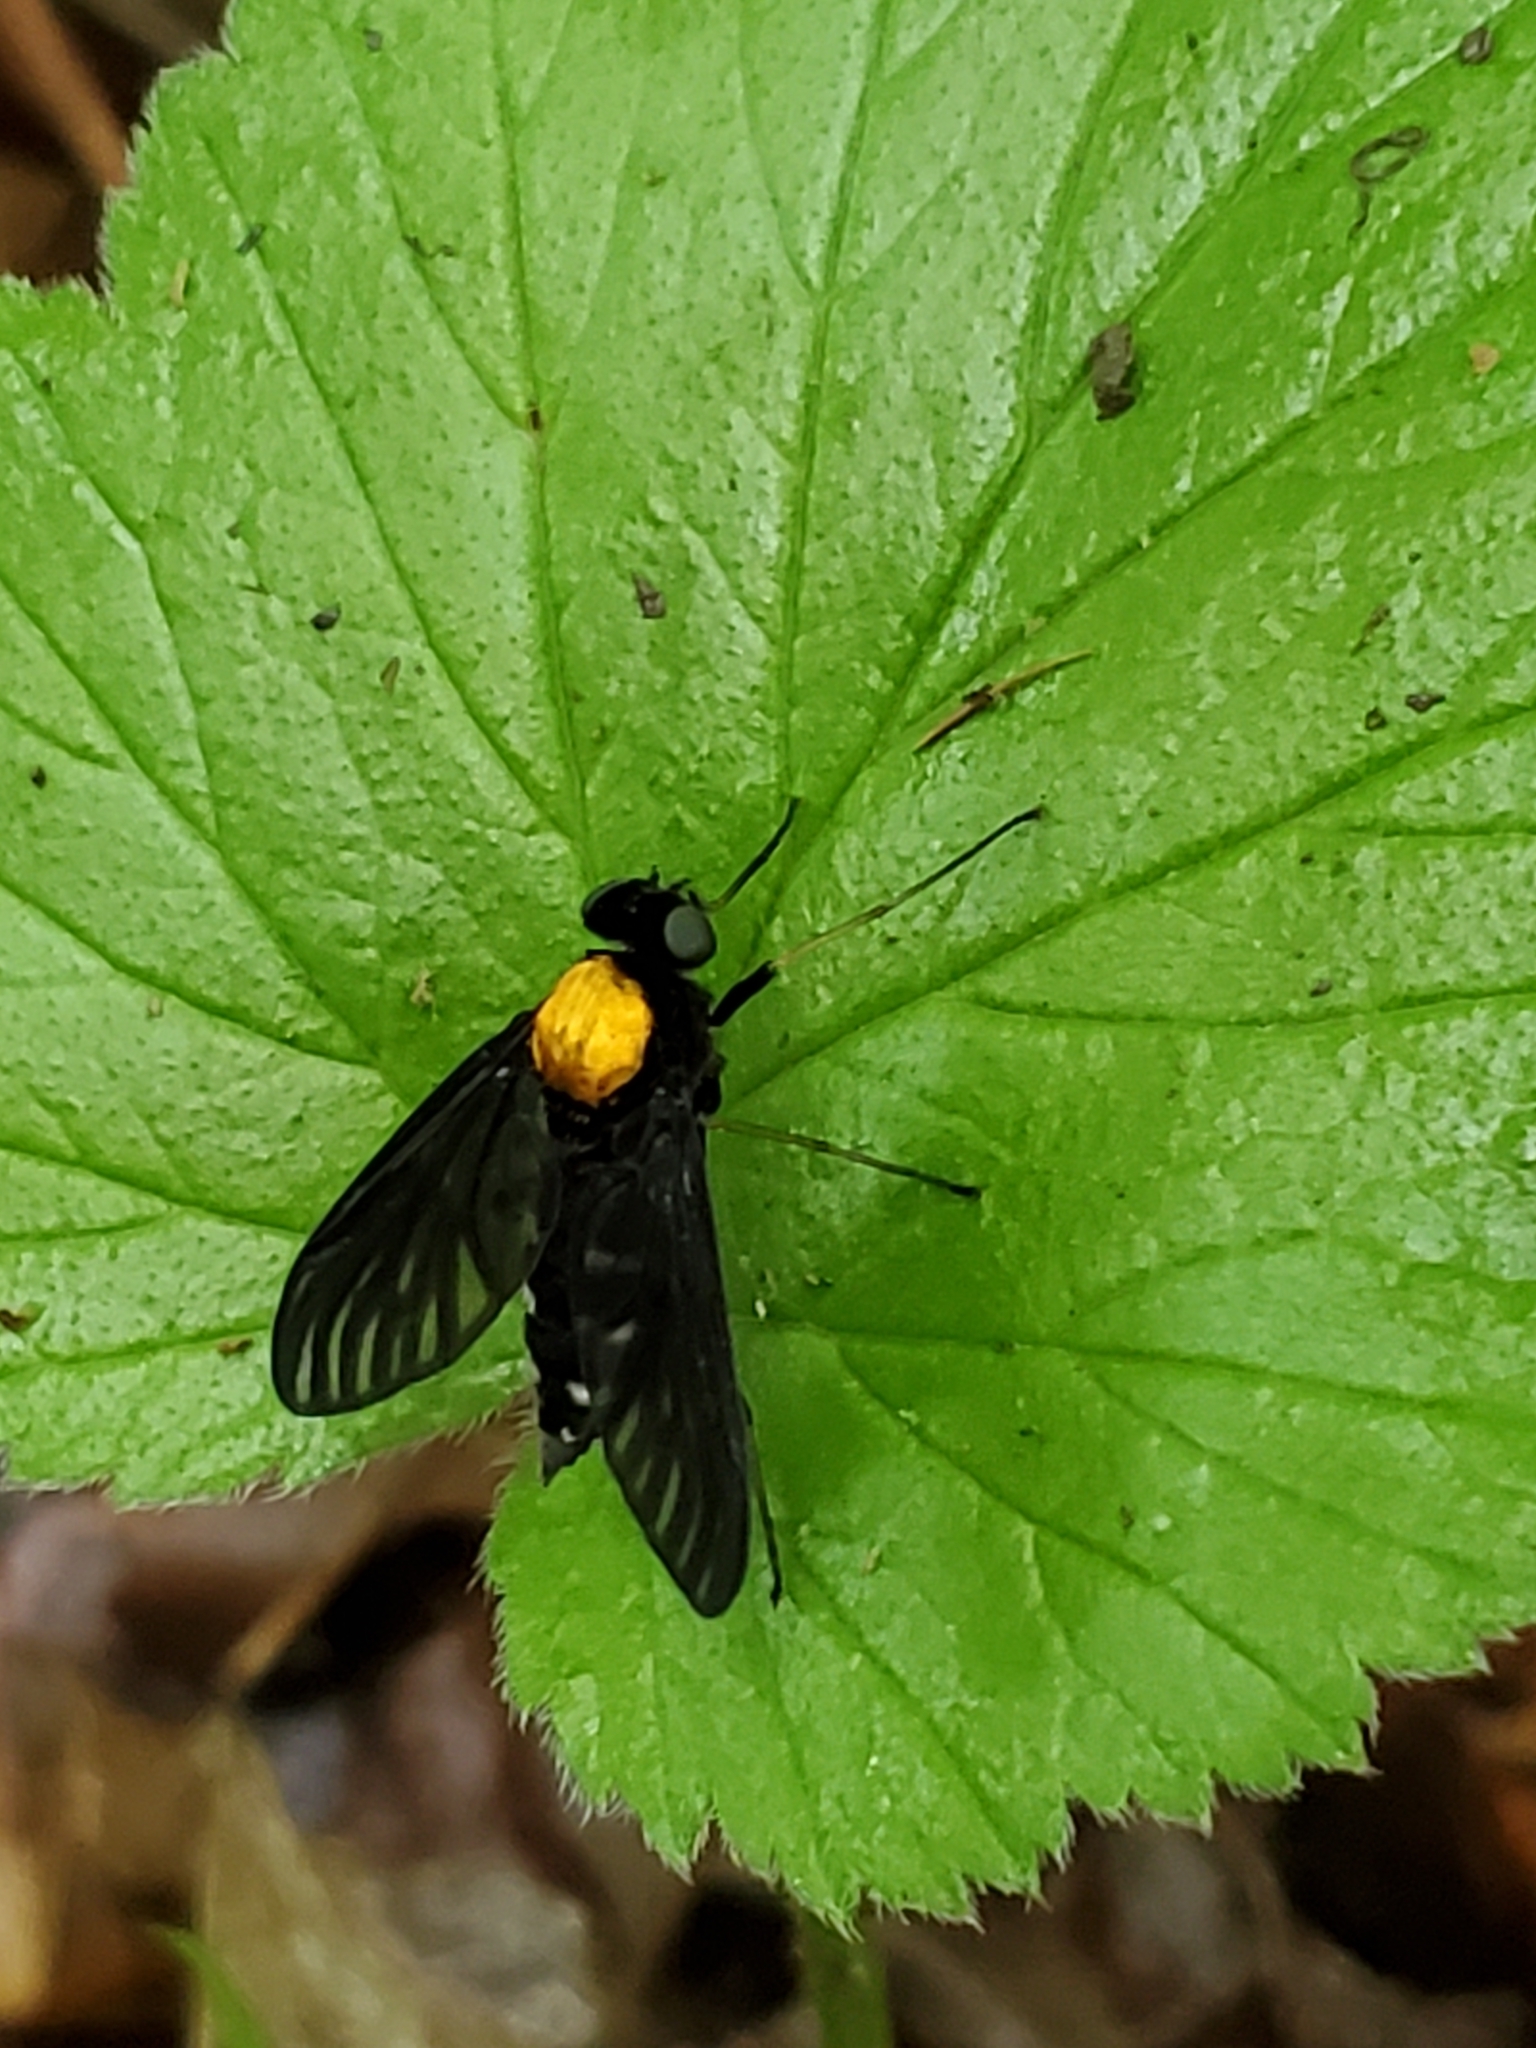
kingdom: Animalia
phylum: Arthropoda
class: Insecta
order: Diptera
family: Rhagionidae
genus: Chrysopilus
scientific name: Chrysopilus thoracicus
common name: Golden-backed snipe fly
